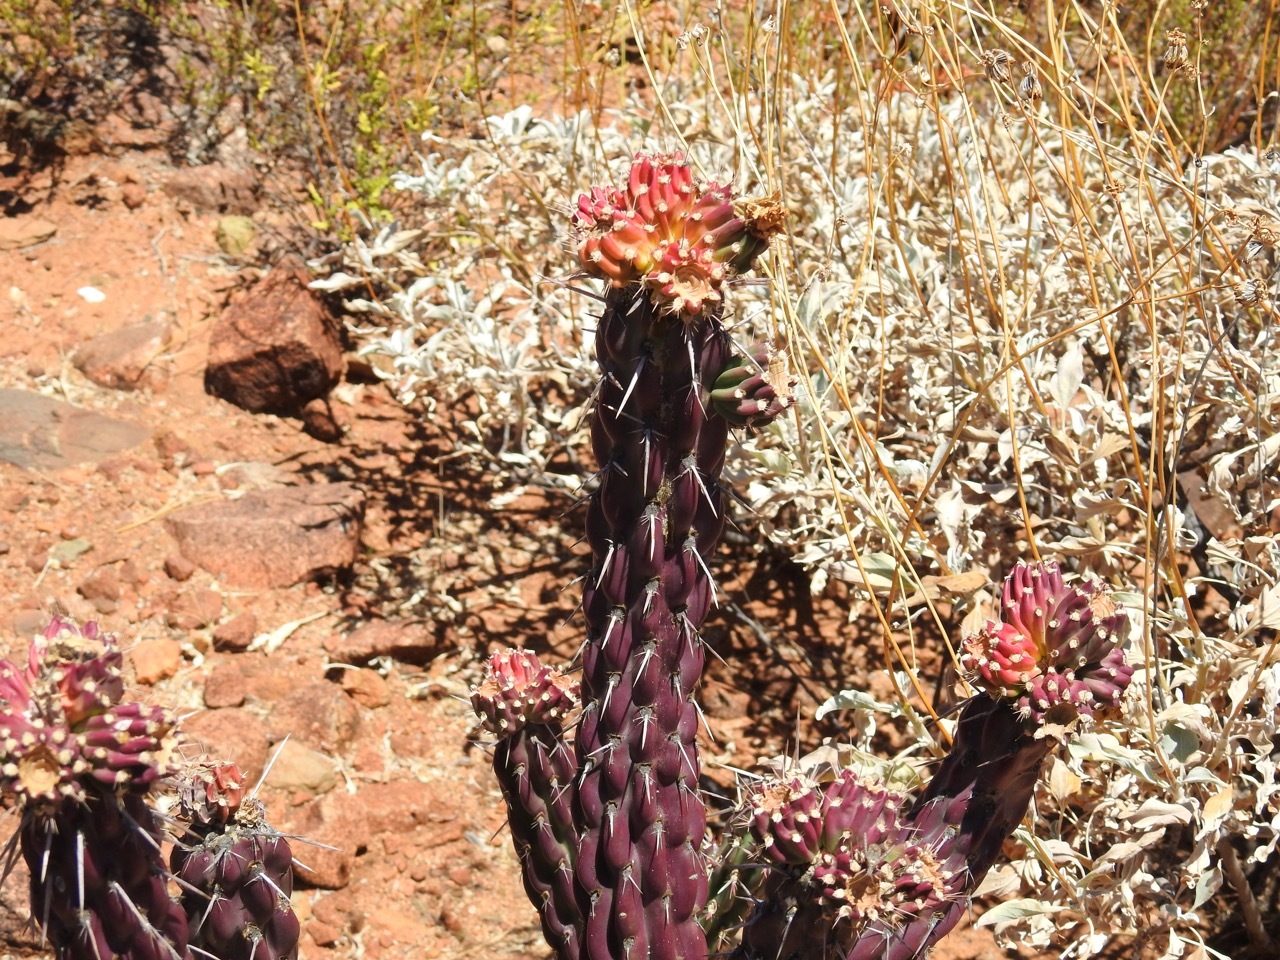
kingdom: Plantae
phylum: Tracheophyta
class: Magnoliopsida
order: Caryophyllales
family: Cactaceae
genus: Cylindropuntia
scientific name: Cylindropuntia californica
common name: Snake cholla
